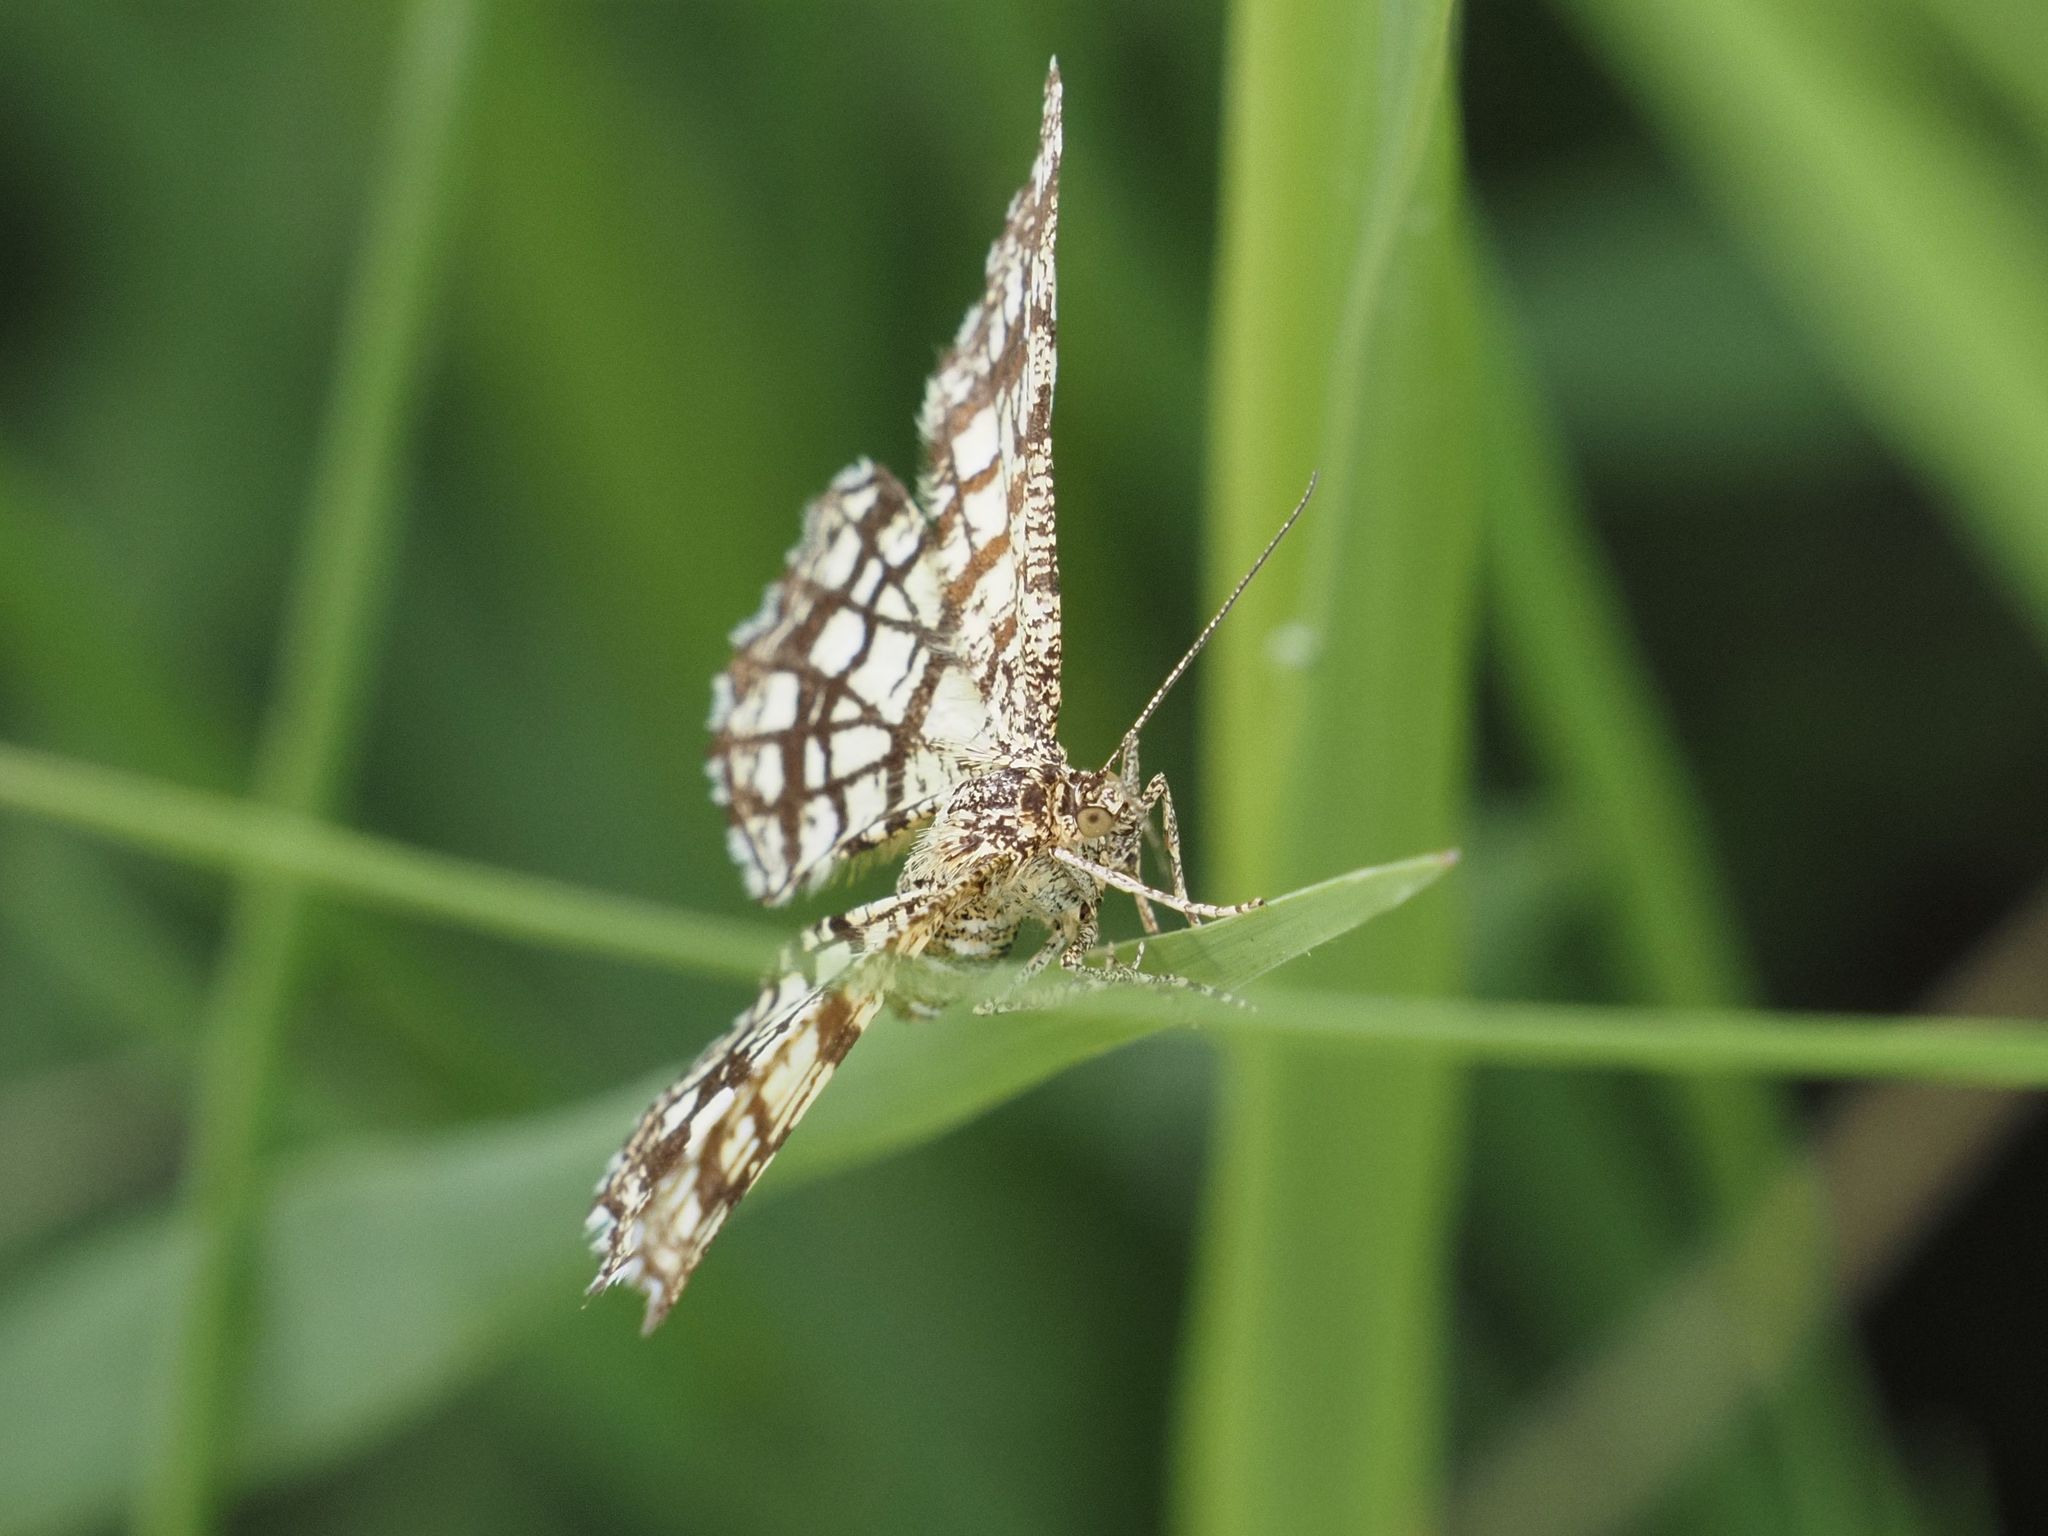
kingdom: Animalia
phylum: Arthropoda
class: Insecta
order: Lepidoptera
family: Geometridae
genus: Chiasmia
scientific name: Chiasmia clathrata
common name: Latticed heath
